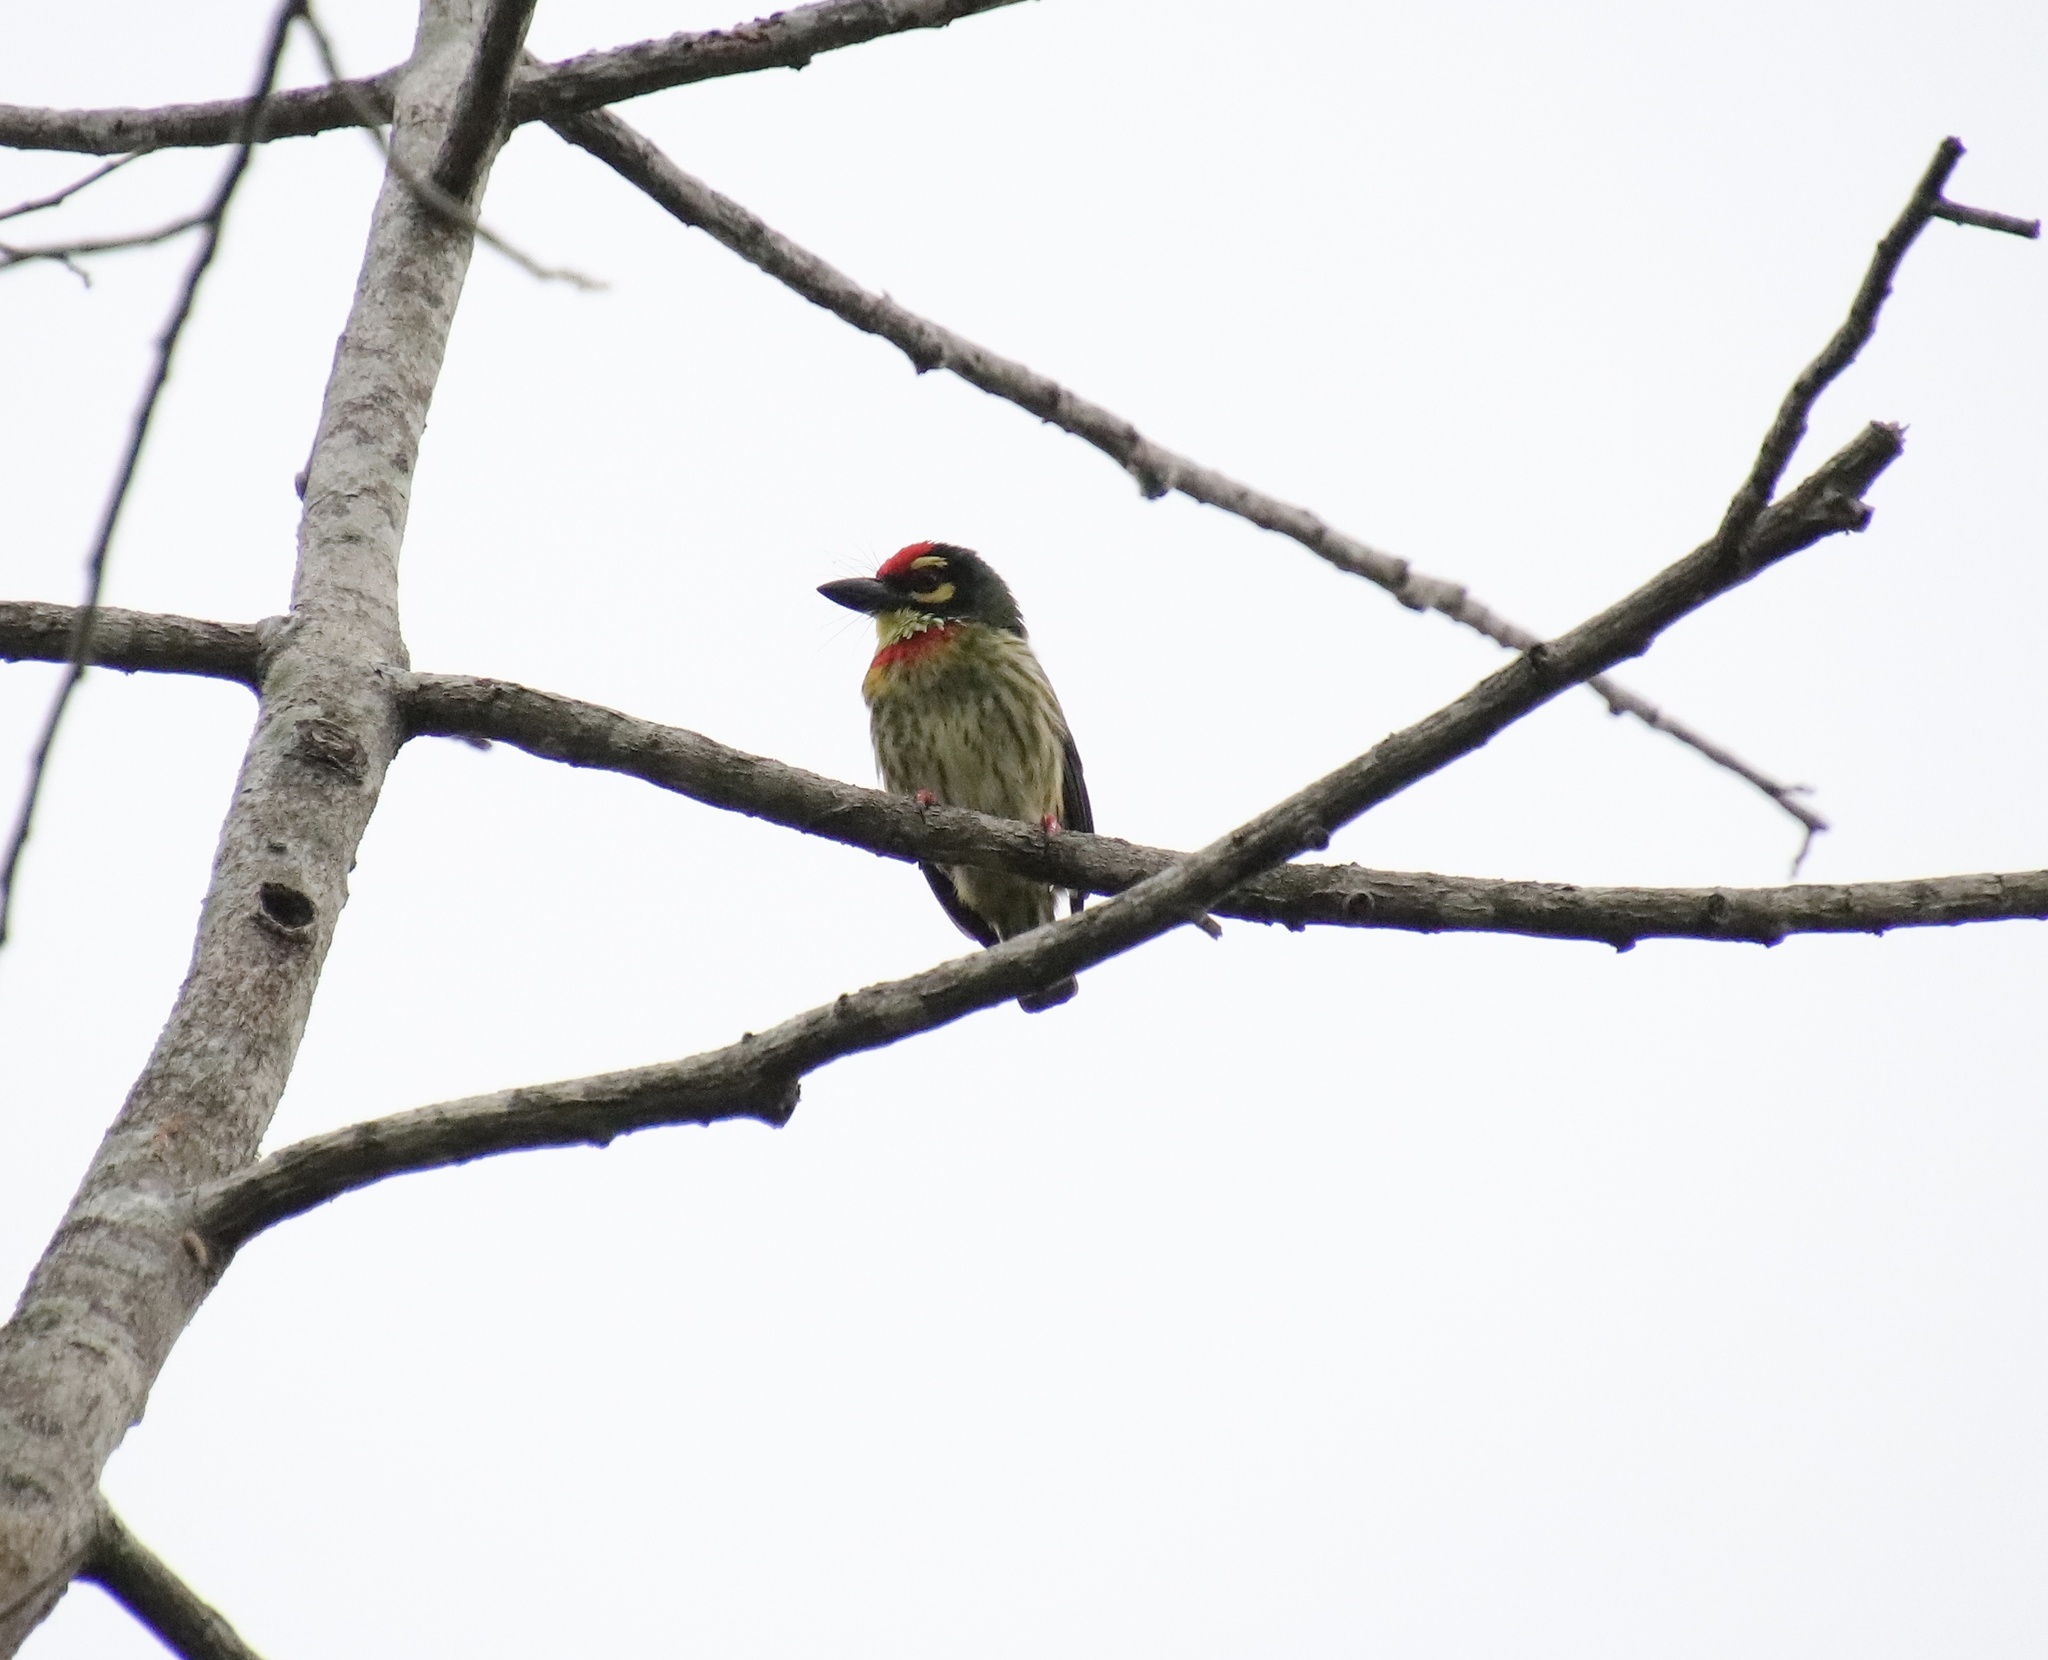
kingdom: Animalia
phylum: Chordata
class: Aves
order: Piciformes
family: Megalaimidae
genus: Psilopogon
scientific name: Psilopogon haemacephalus
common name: Coppersmith barbet
